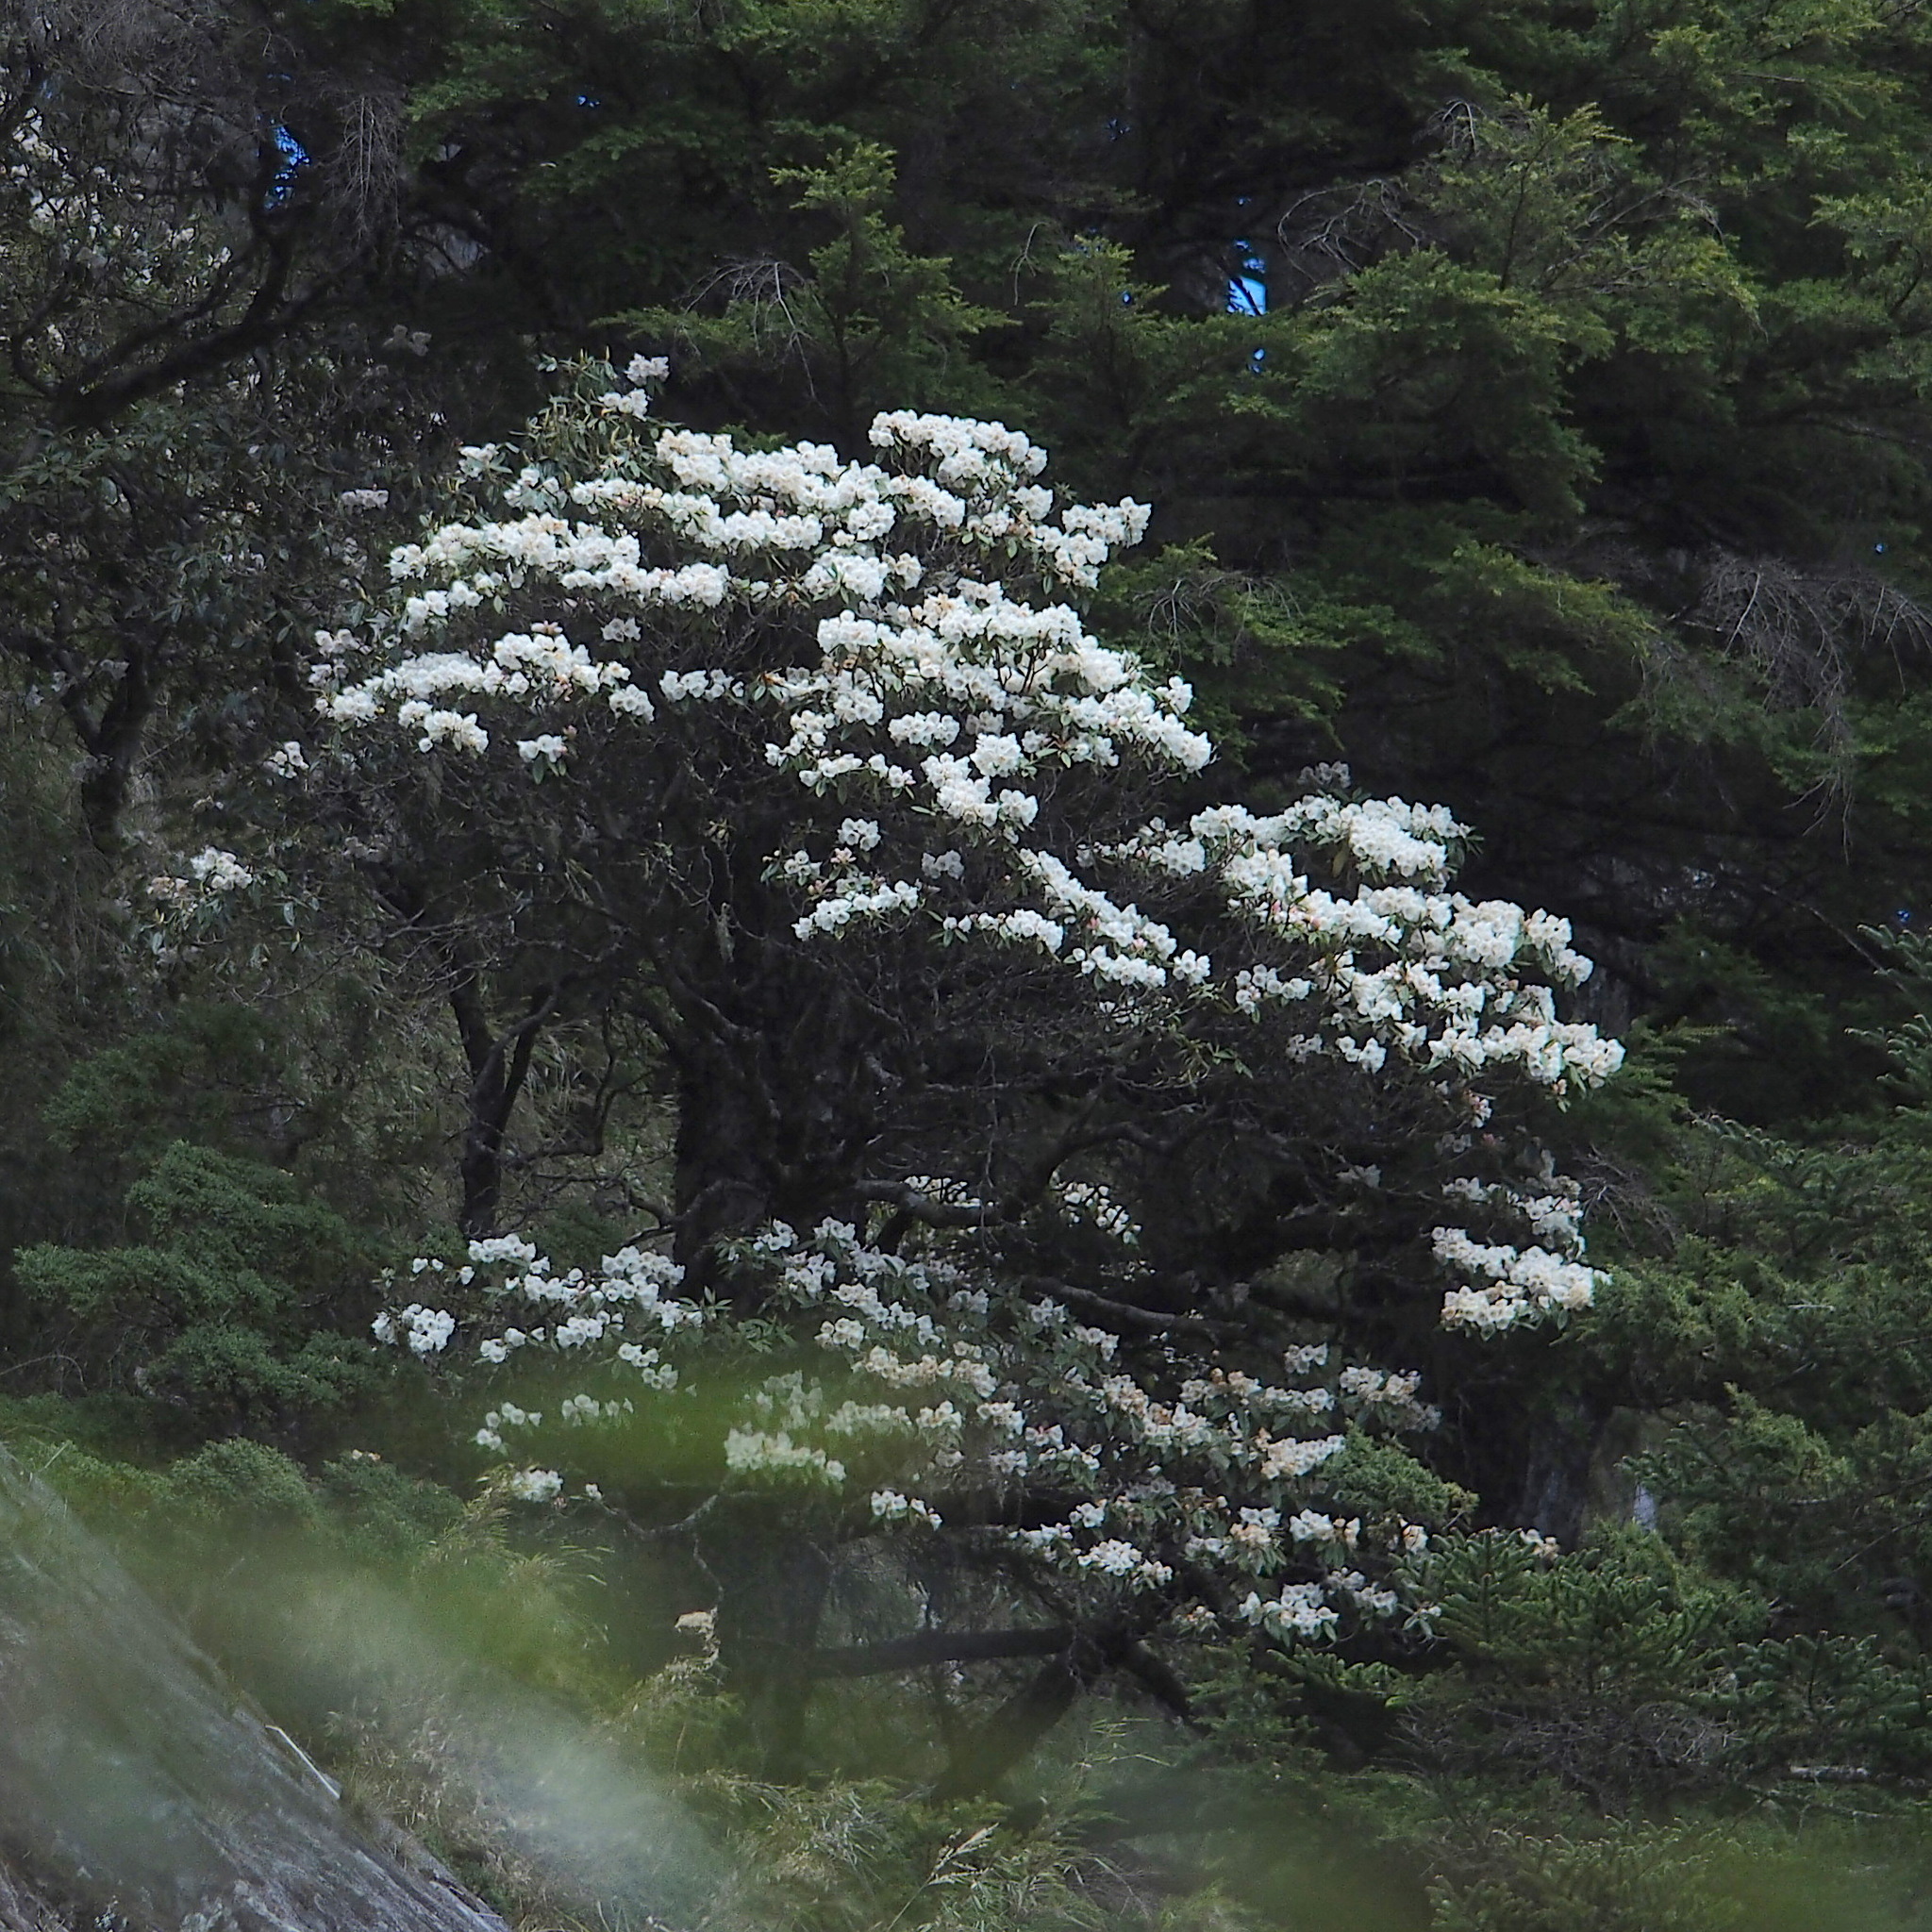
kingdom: Plantae
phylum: Tracheophyta
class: Magnoliopsida
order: Ericales
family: Ericaceae
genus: Rhododendron
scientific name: Rhododendron pseudochrysanthum
